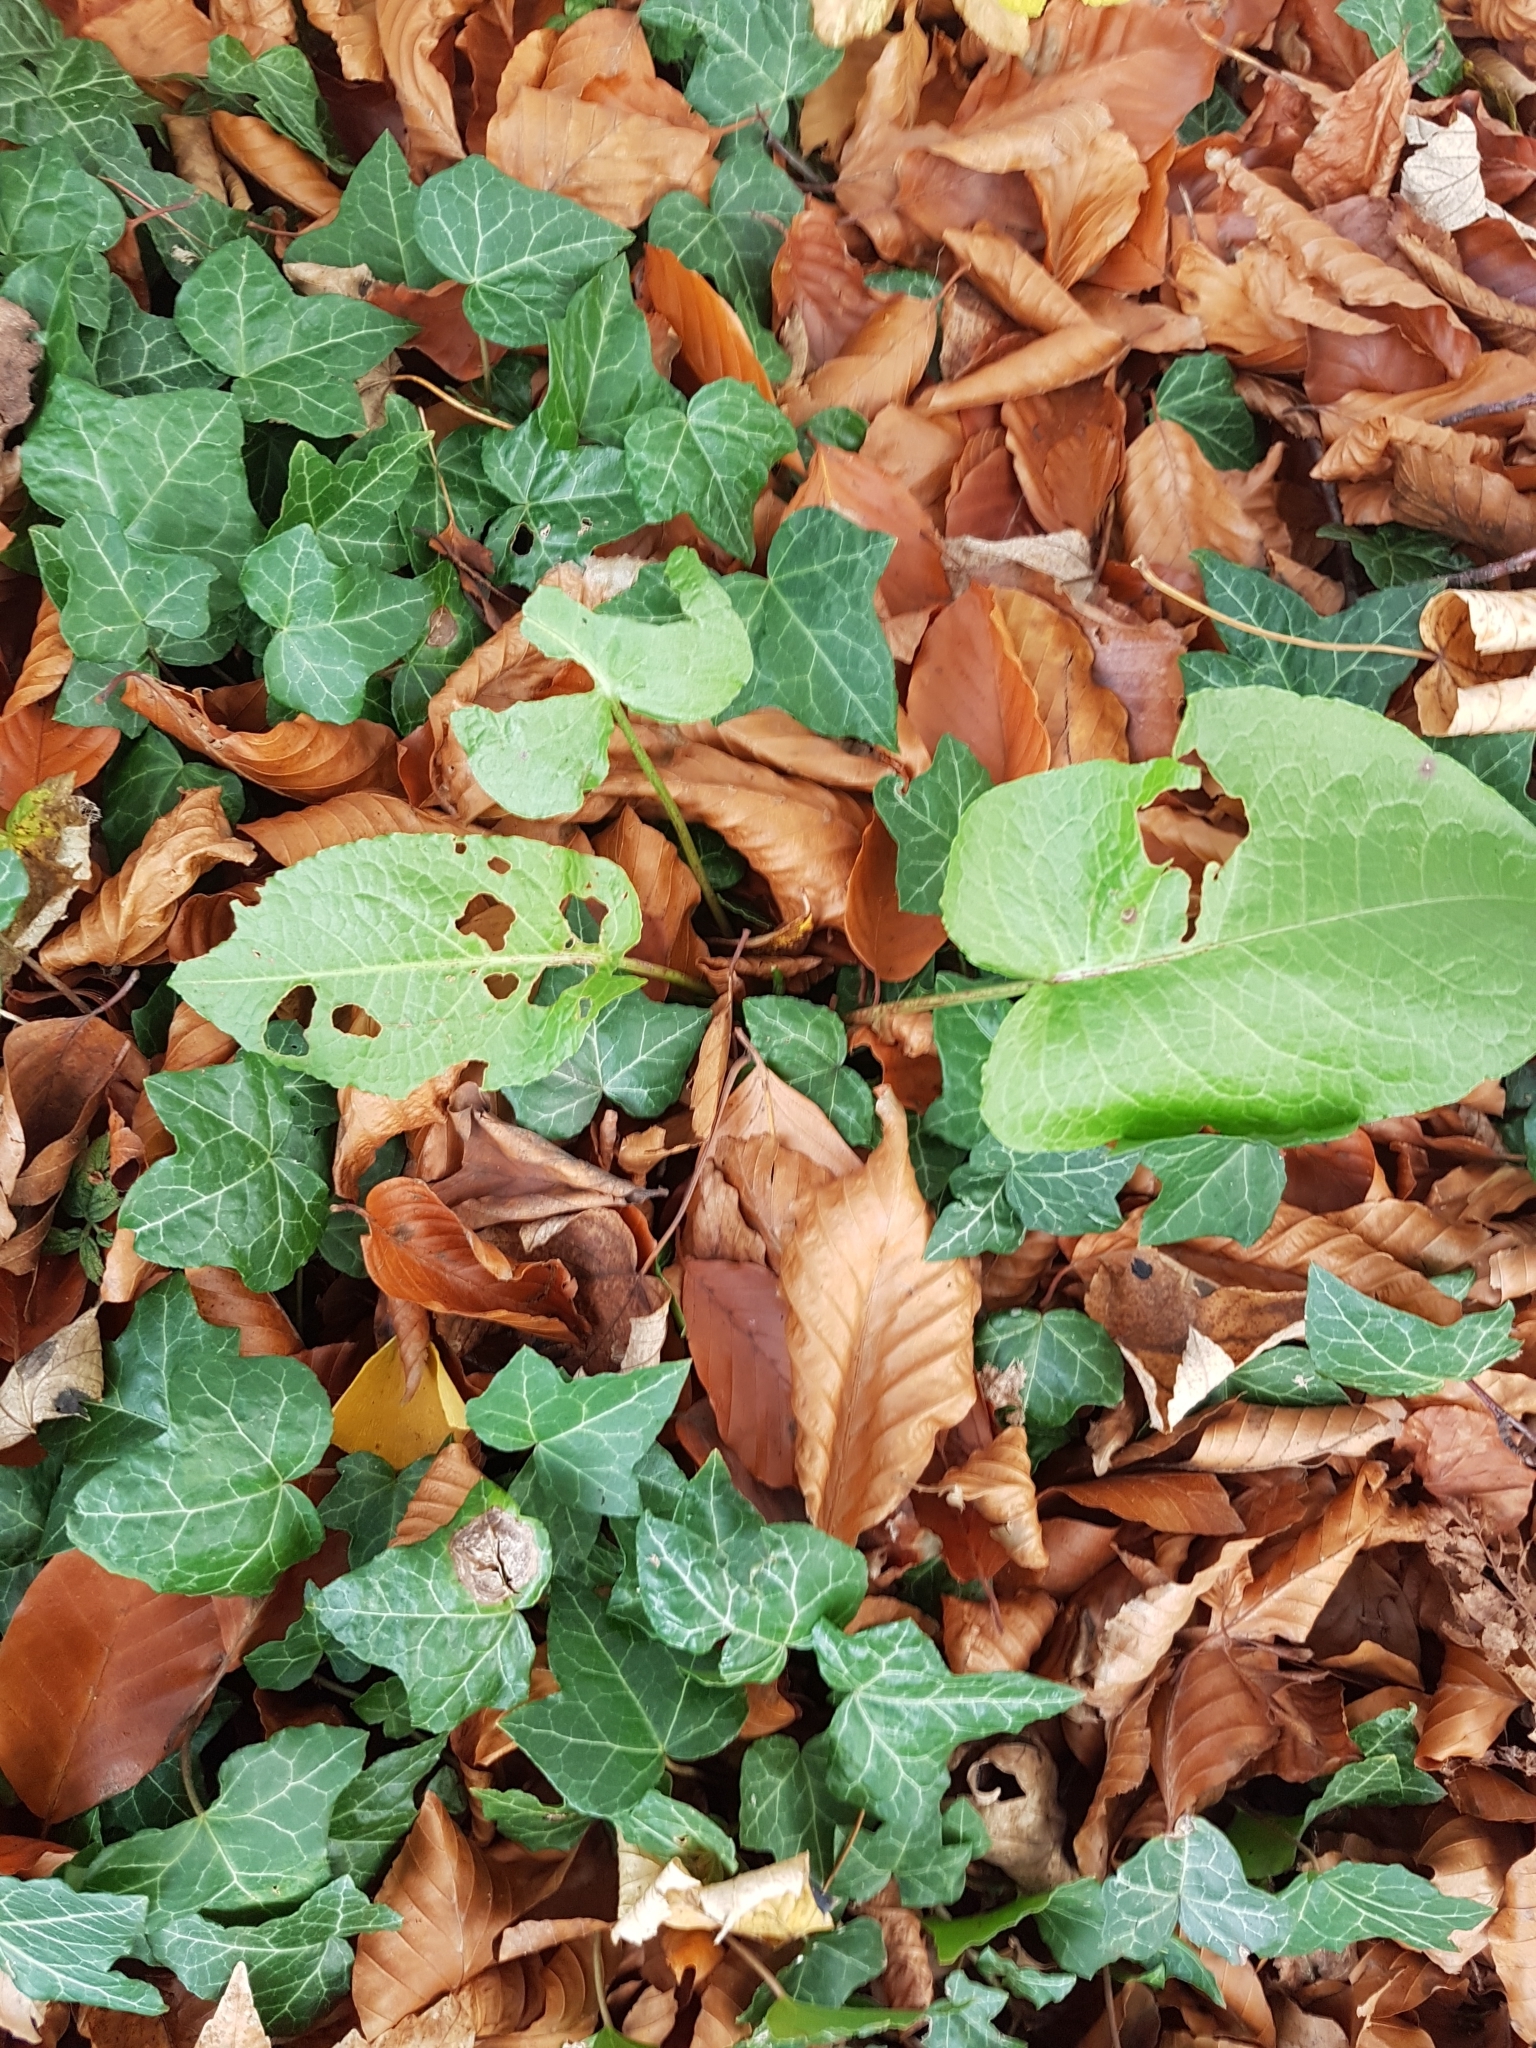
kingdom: Plantae
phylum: Tracheophyta
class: Magnoliopsida
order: Caryophyllales
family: Polygonaceae
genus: Rumex
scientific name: Rumex obtusifolius
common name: Bitter dock
